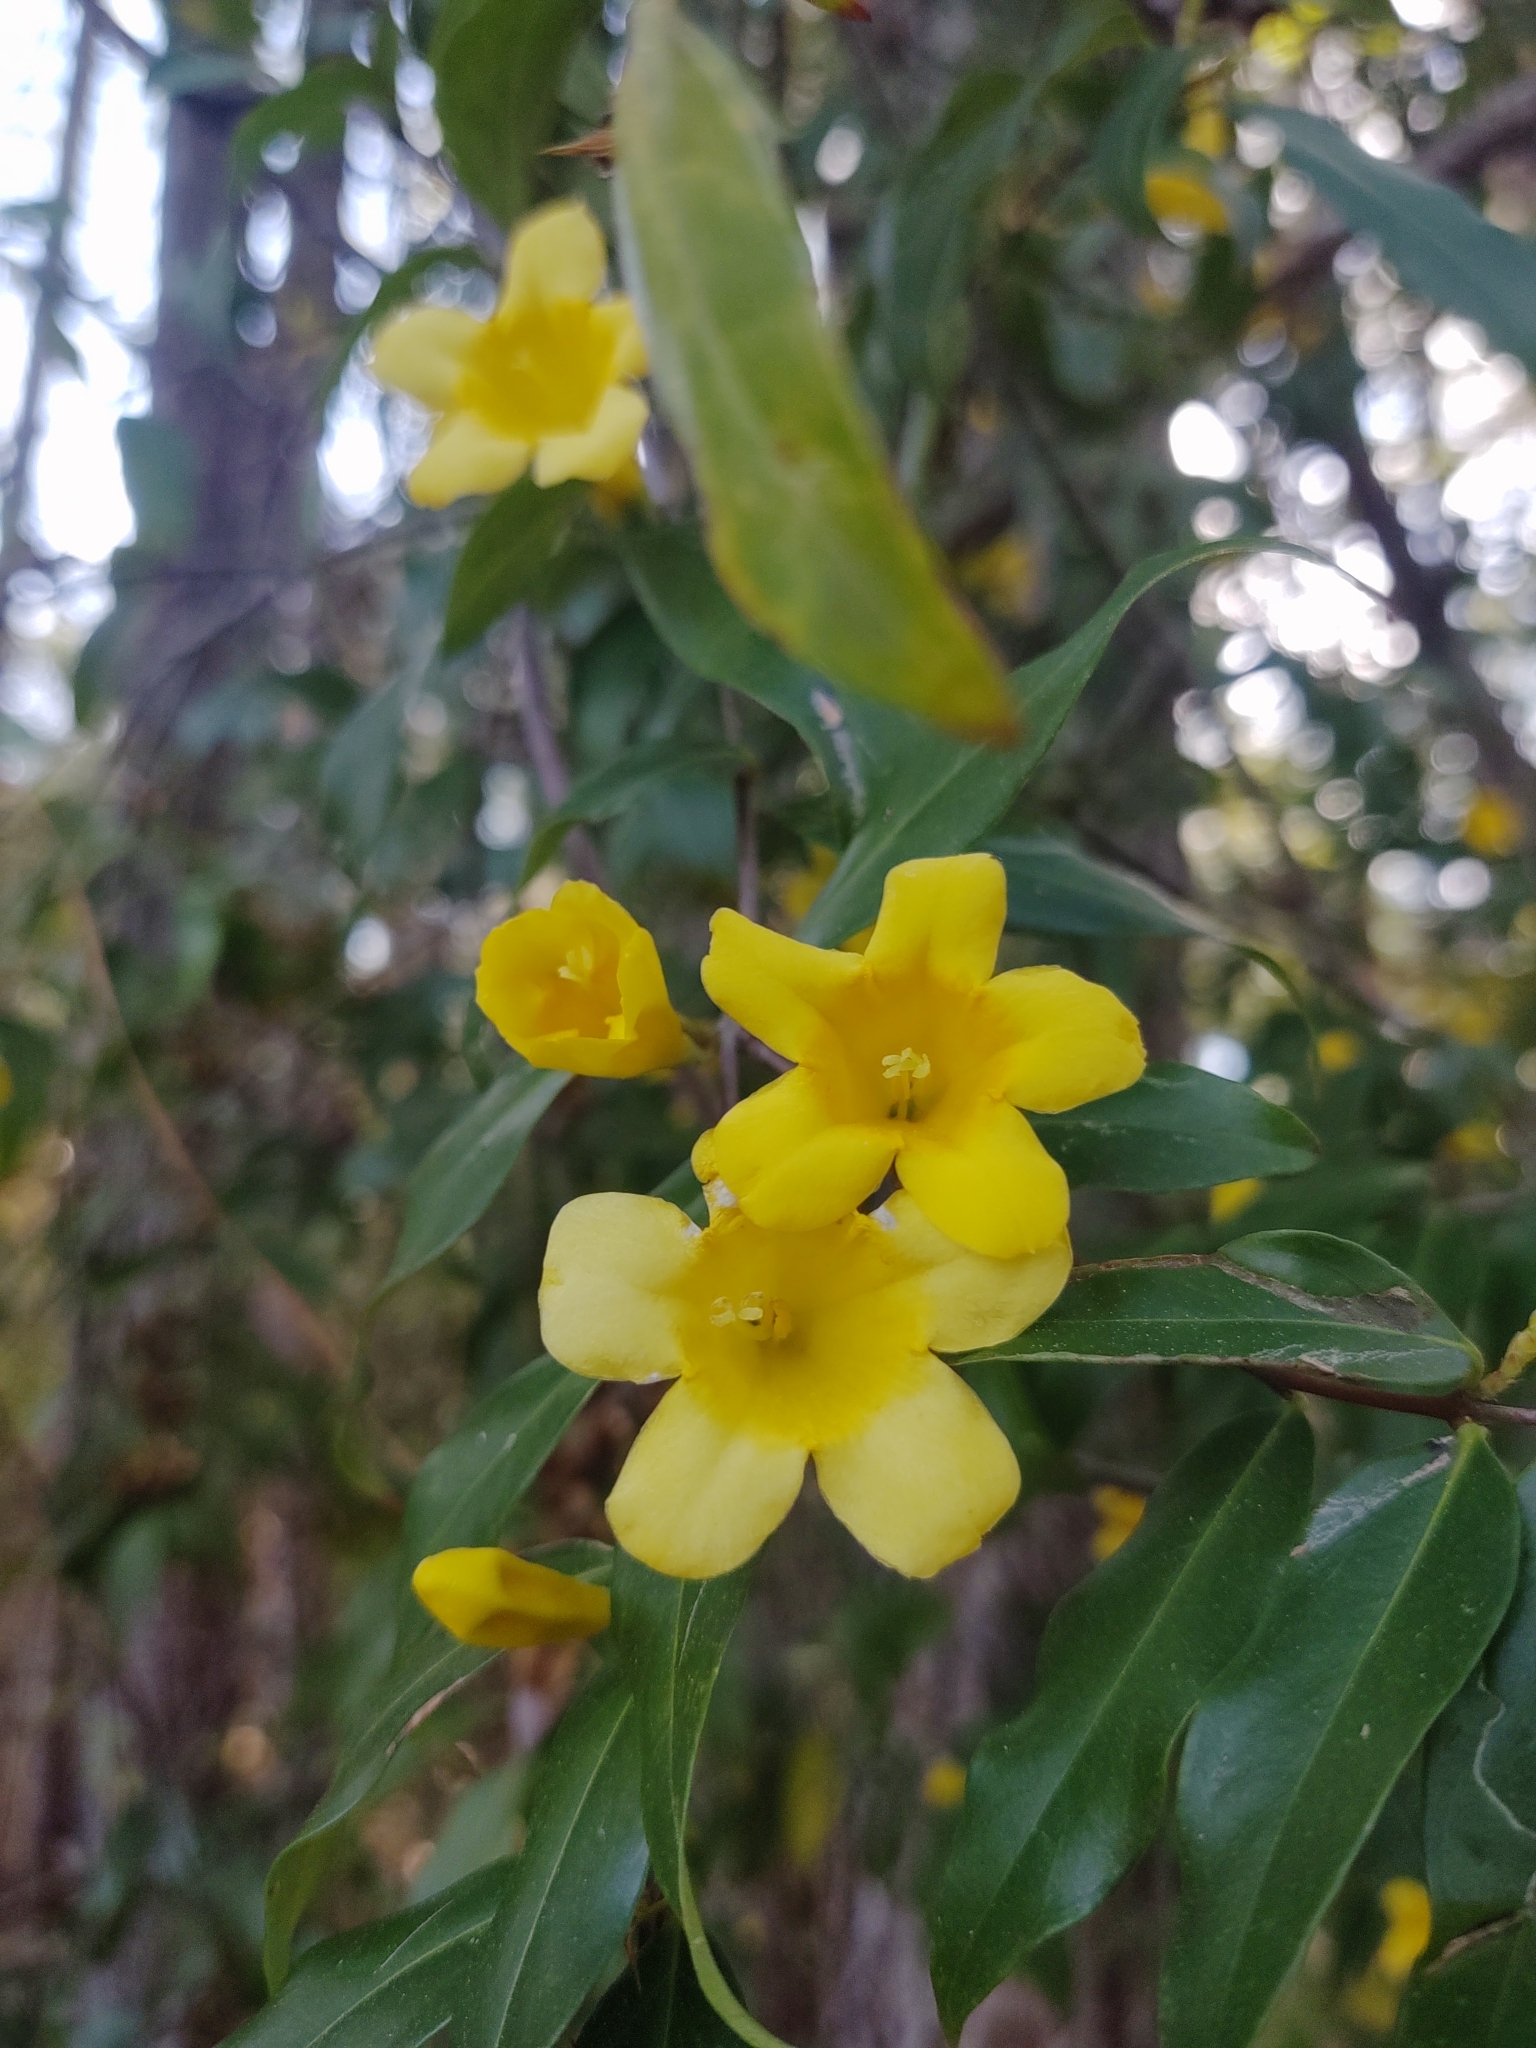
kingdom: Plantae
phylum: Tracheophyta
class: Magnoliopsida
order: Gentianales
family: Gelsemiaceae
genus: Gelsemium
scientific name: Gelsemium sempervirens
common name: Carolina-jasmine
